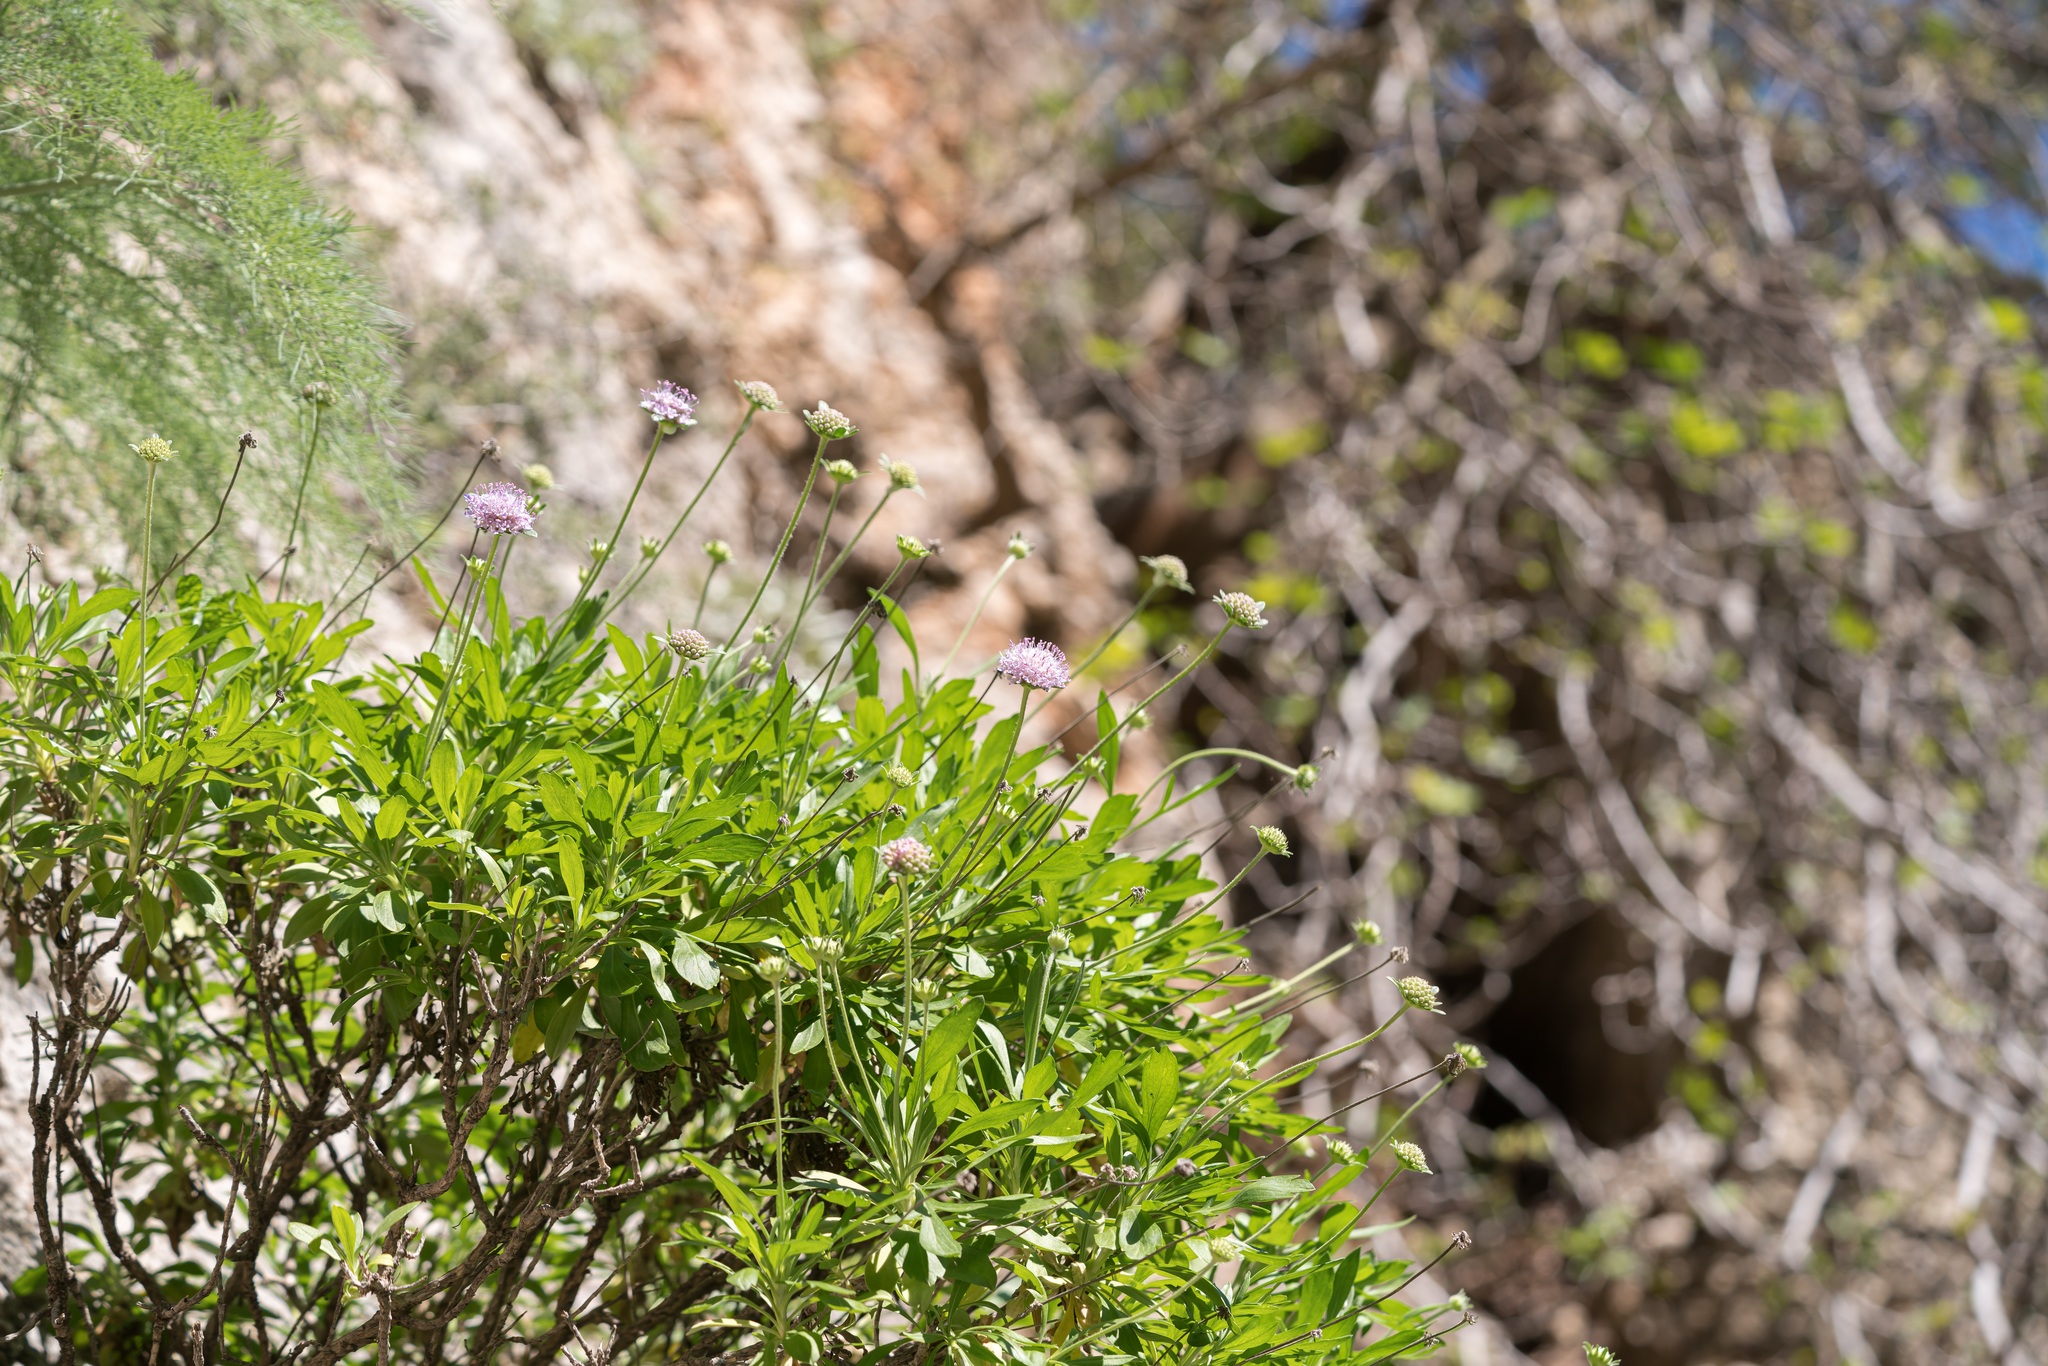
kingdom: Plantae
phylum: Tracheophyta
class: Magnoliopsida
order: Dipsacales
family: Caprifoliaceae
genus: Lomelosia
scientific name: Lomelosia variifolia
